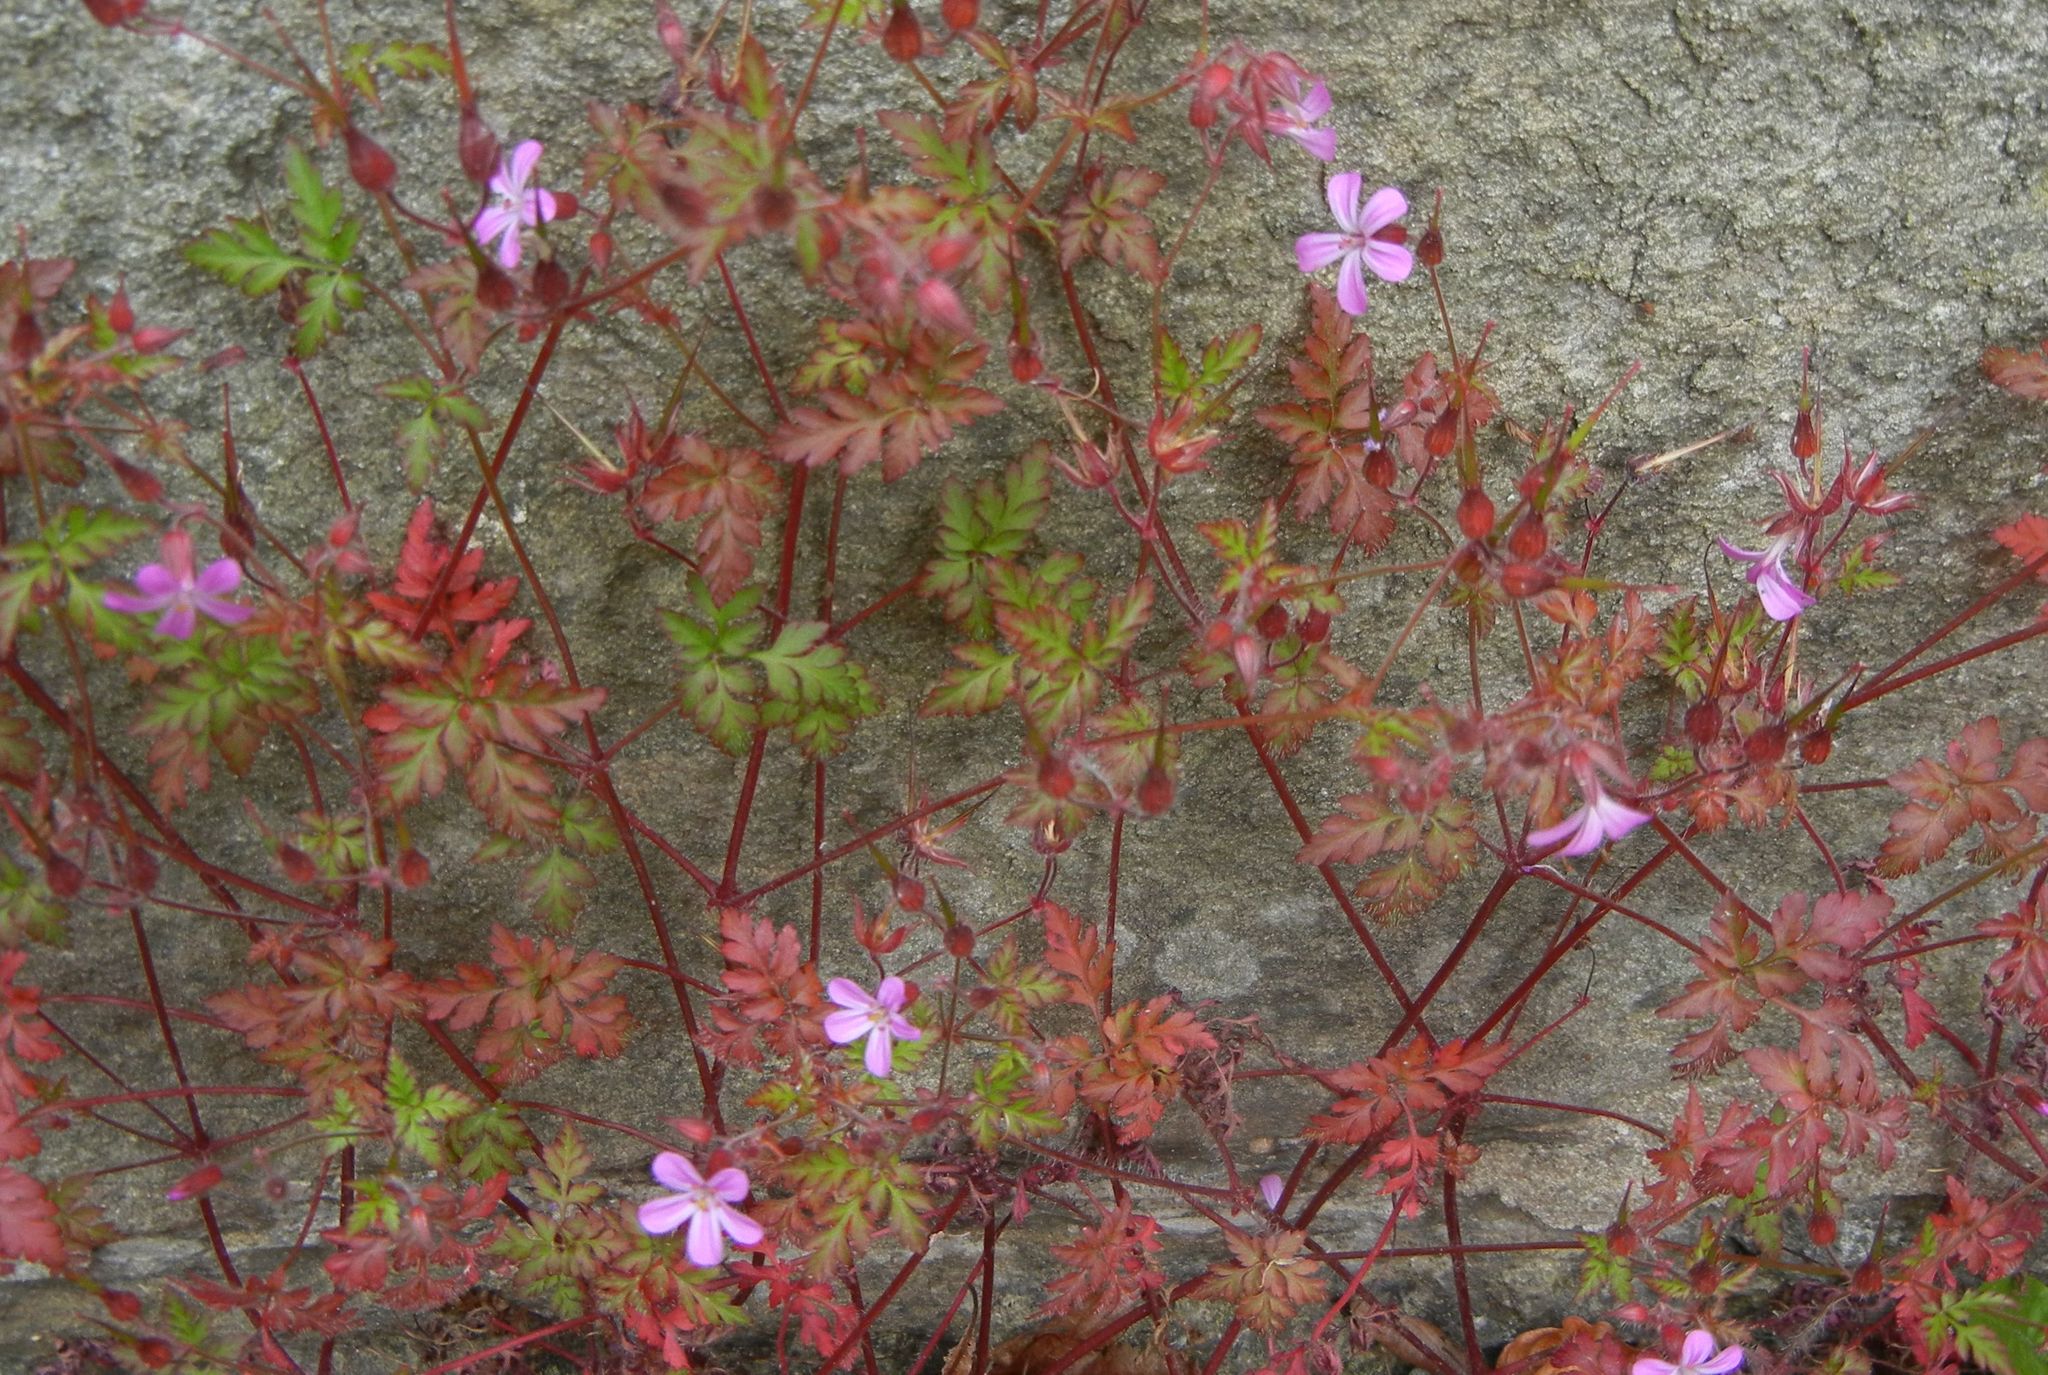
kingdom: Plantae
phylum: Tracheophyta
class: Magnoliopsida
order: Geraniales
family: Geraniaceae
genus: Geranium
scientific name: Geranium robertianum
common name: Herb-robert
